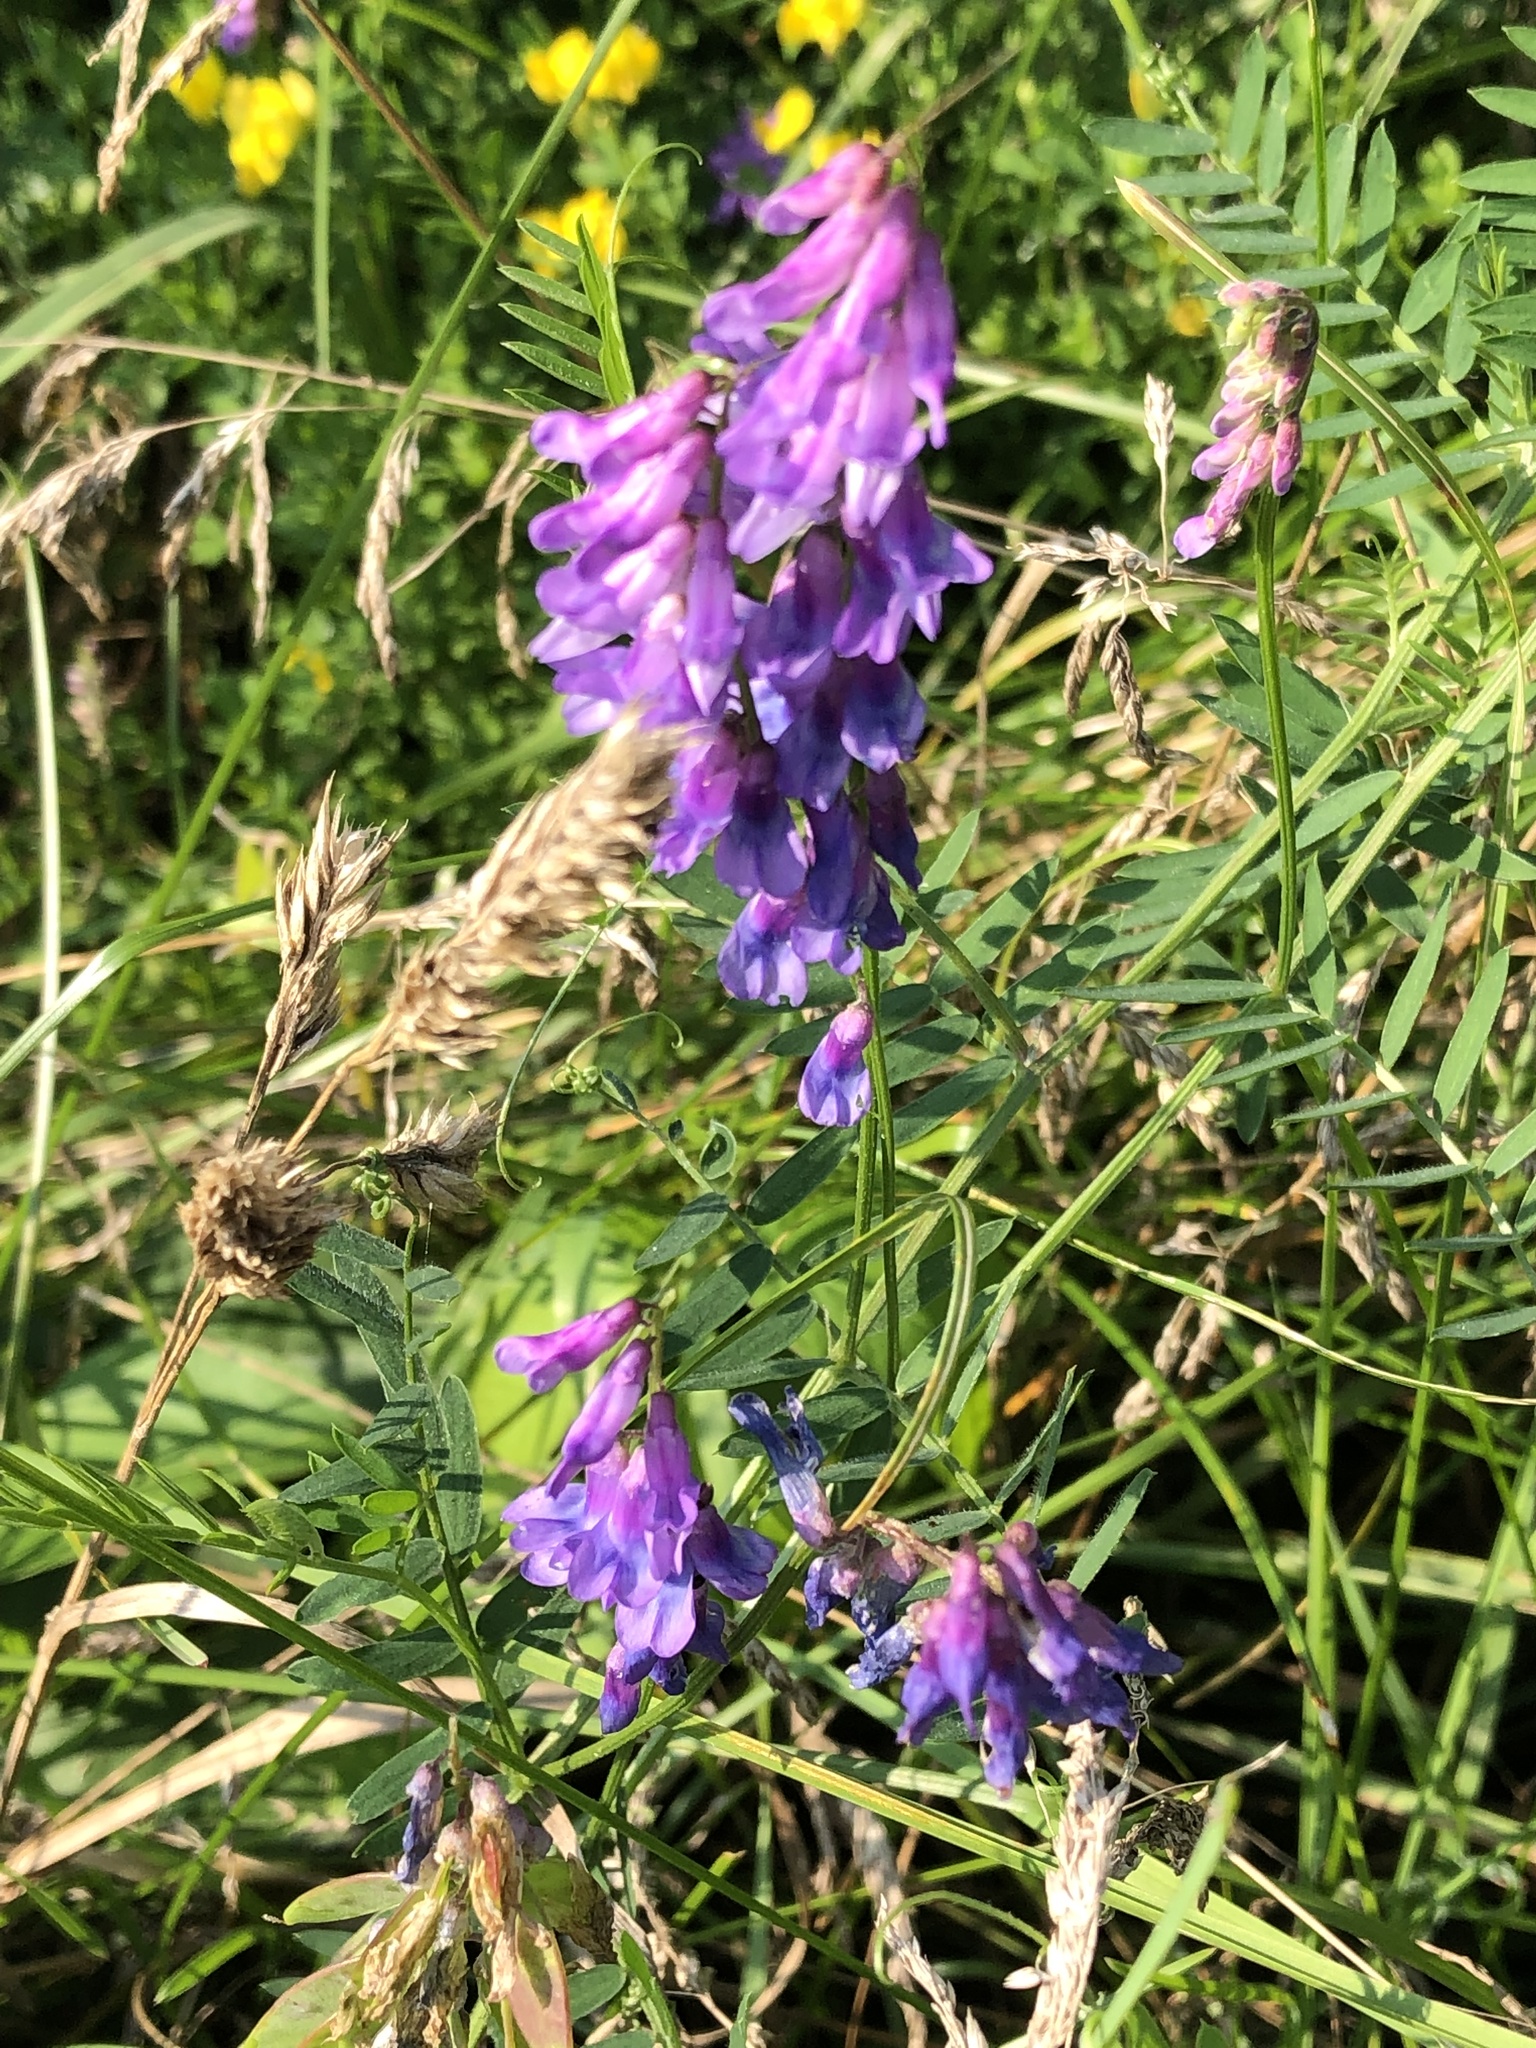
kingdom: Plantae
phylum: Tracheophyta
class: Magnoliopsida
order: Fabales
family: Fabaceae
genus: Vicia
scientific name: Vicia cracca
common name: Bird vetch
